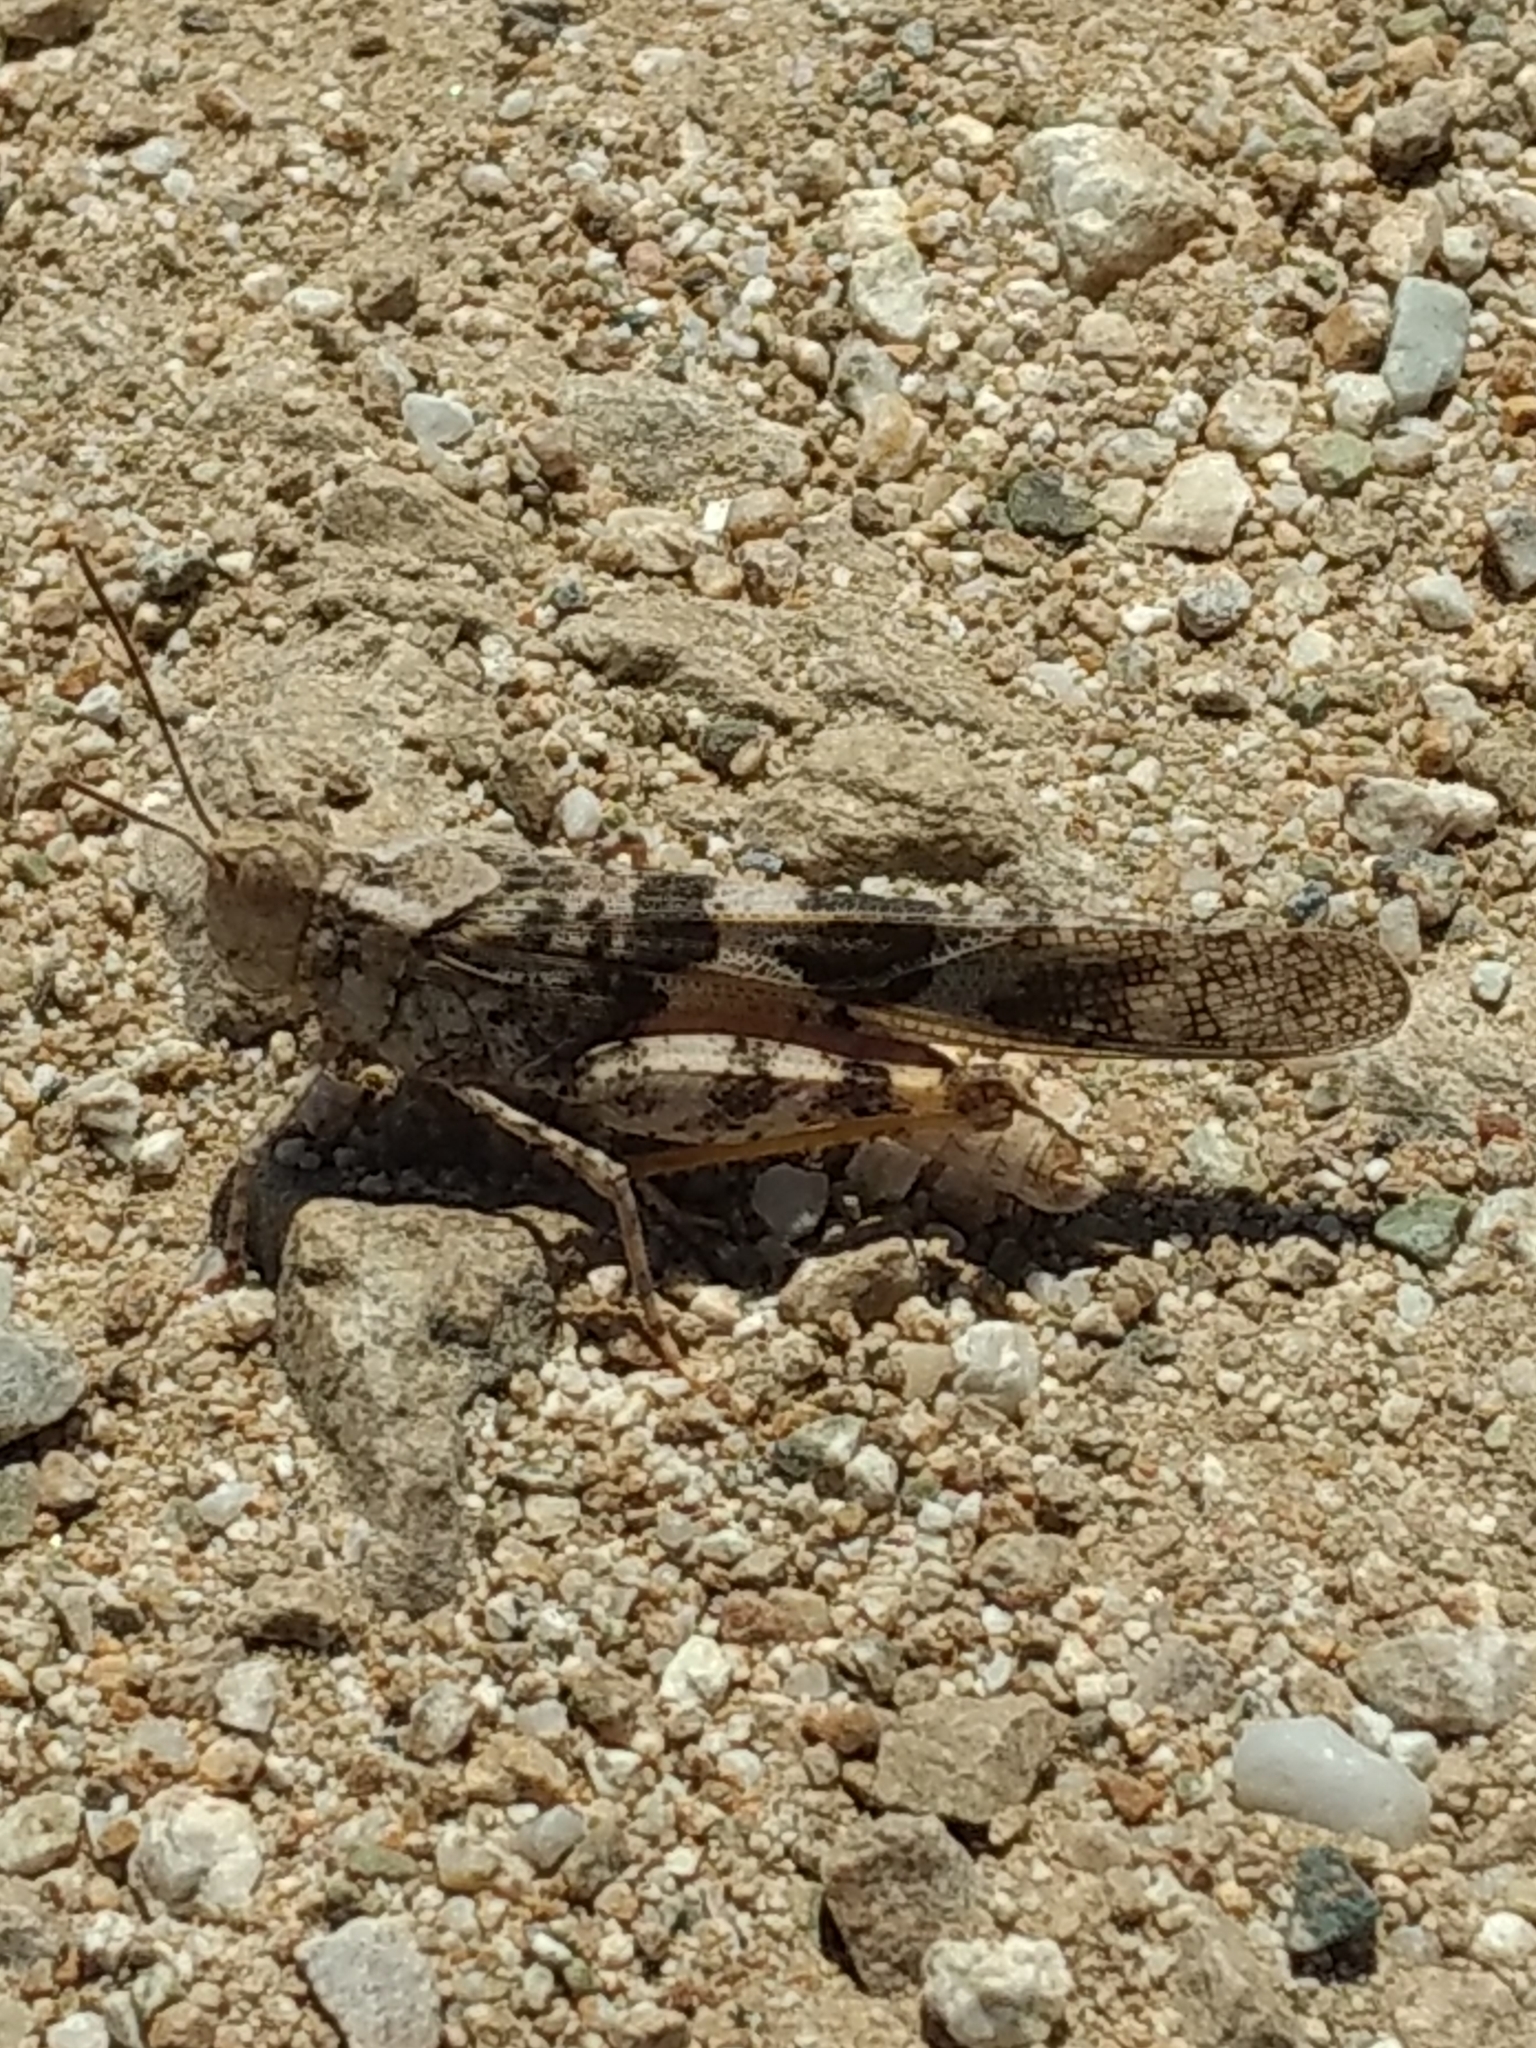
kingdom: Animalia
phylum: Arthropoda
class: Insecta
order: Orthoptera
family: Acrididae
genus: Trimerotropis
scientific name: Trimerotropis pallidipennis
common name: Pallid-winged grasshopper
